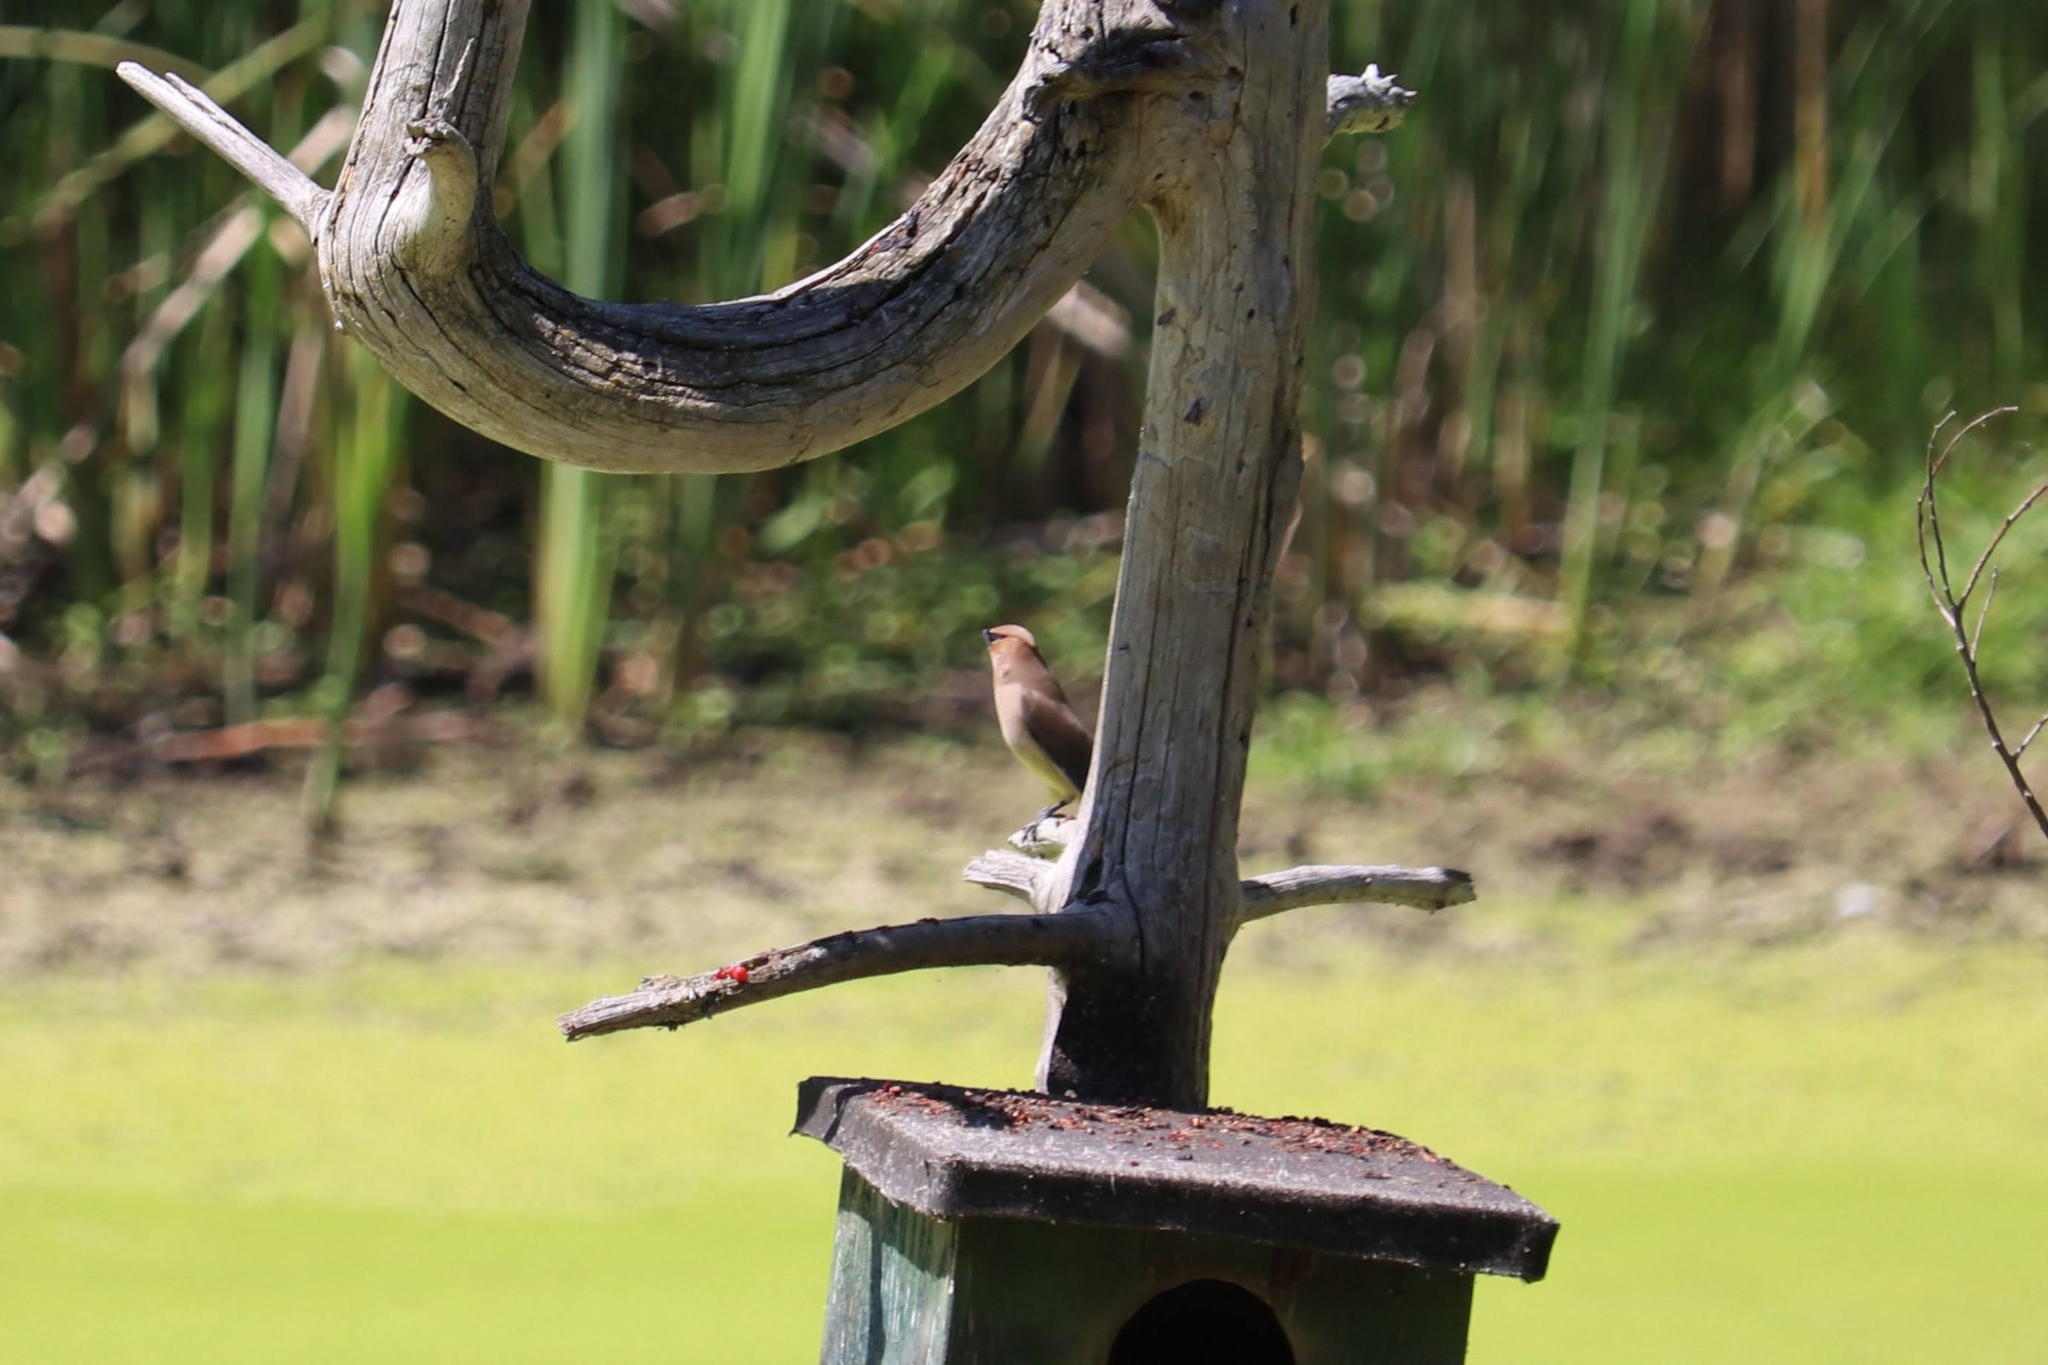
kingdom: Animalia
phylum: Chordata
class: Aves
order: Passeriformes
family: Bombycillidae
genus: Bombycilla
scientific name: Bombycilla cedrorum
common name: Cedar waxwing
